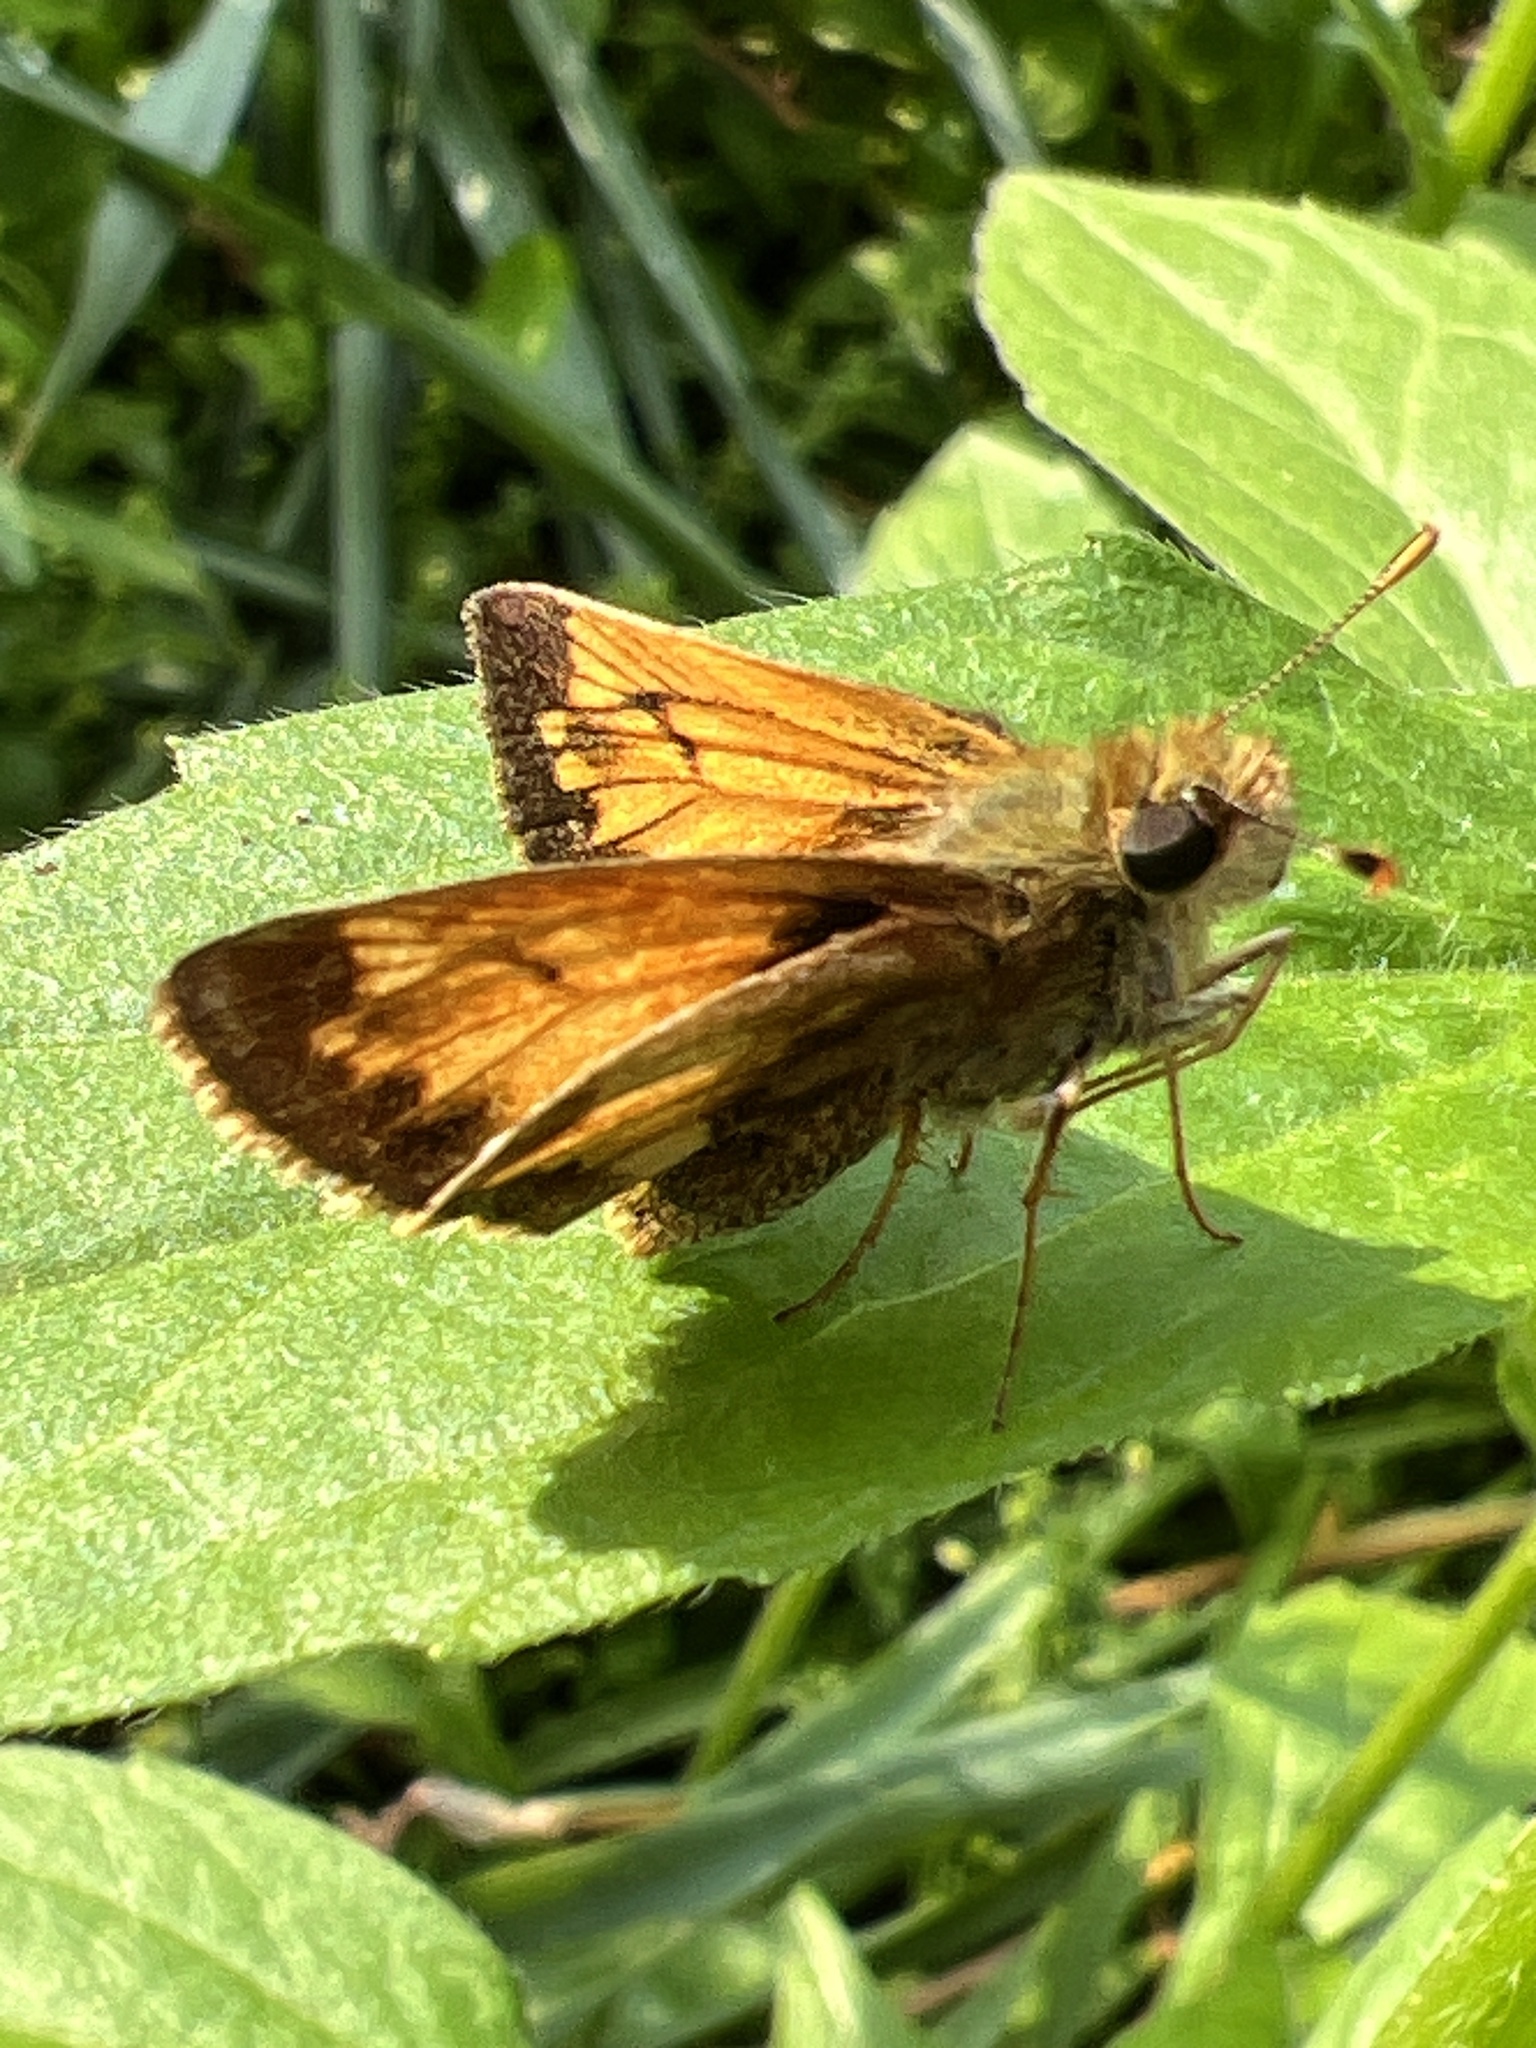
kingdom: Animalia
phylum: Arthropoda
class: Insecta
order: Lepidoptera
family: Hesperiidae
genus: Lon
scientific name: Lon hobomok
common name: Hobomok skipper
